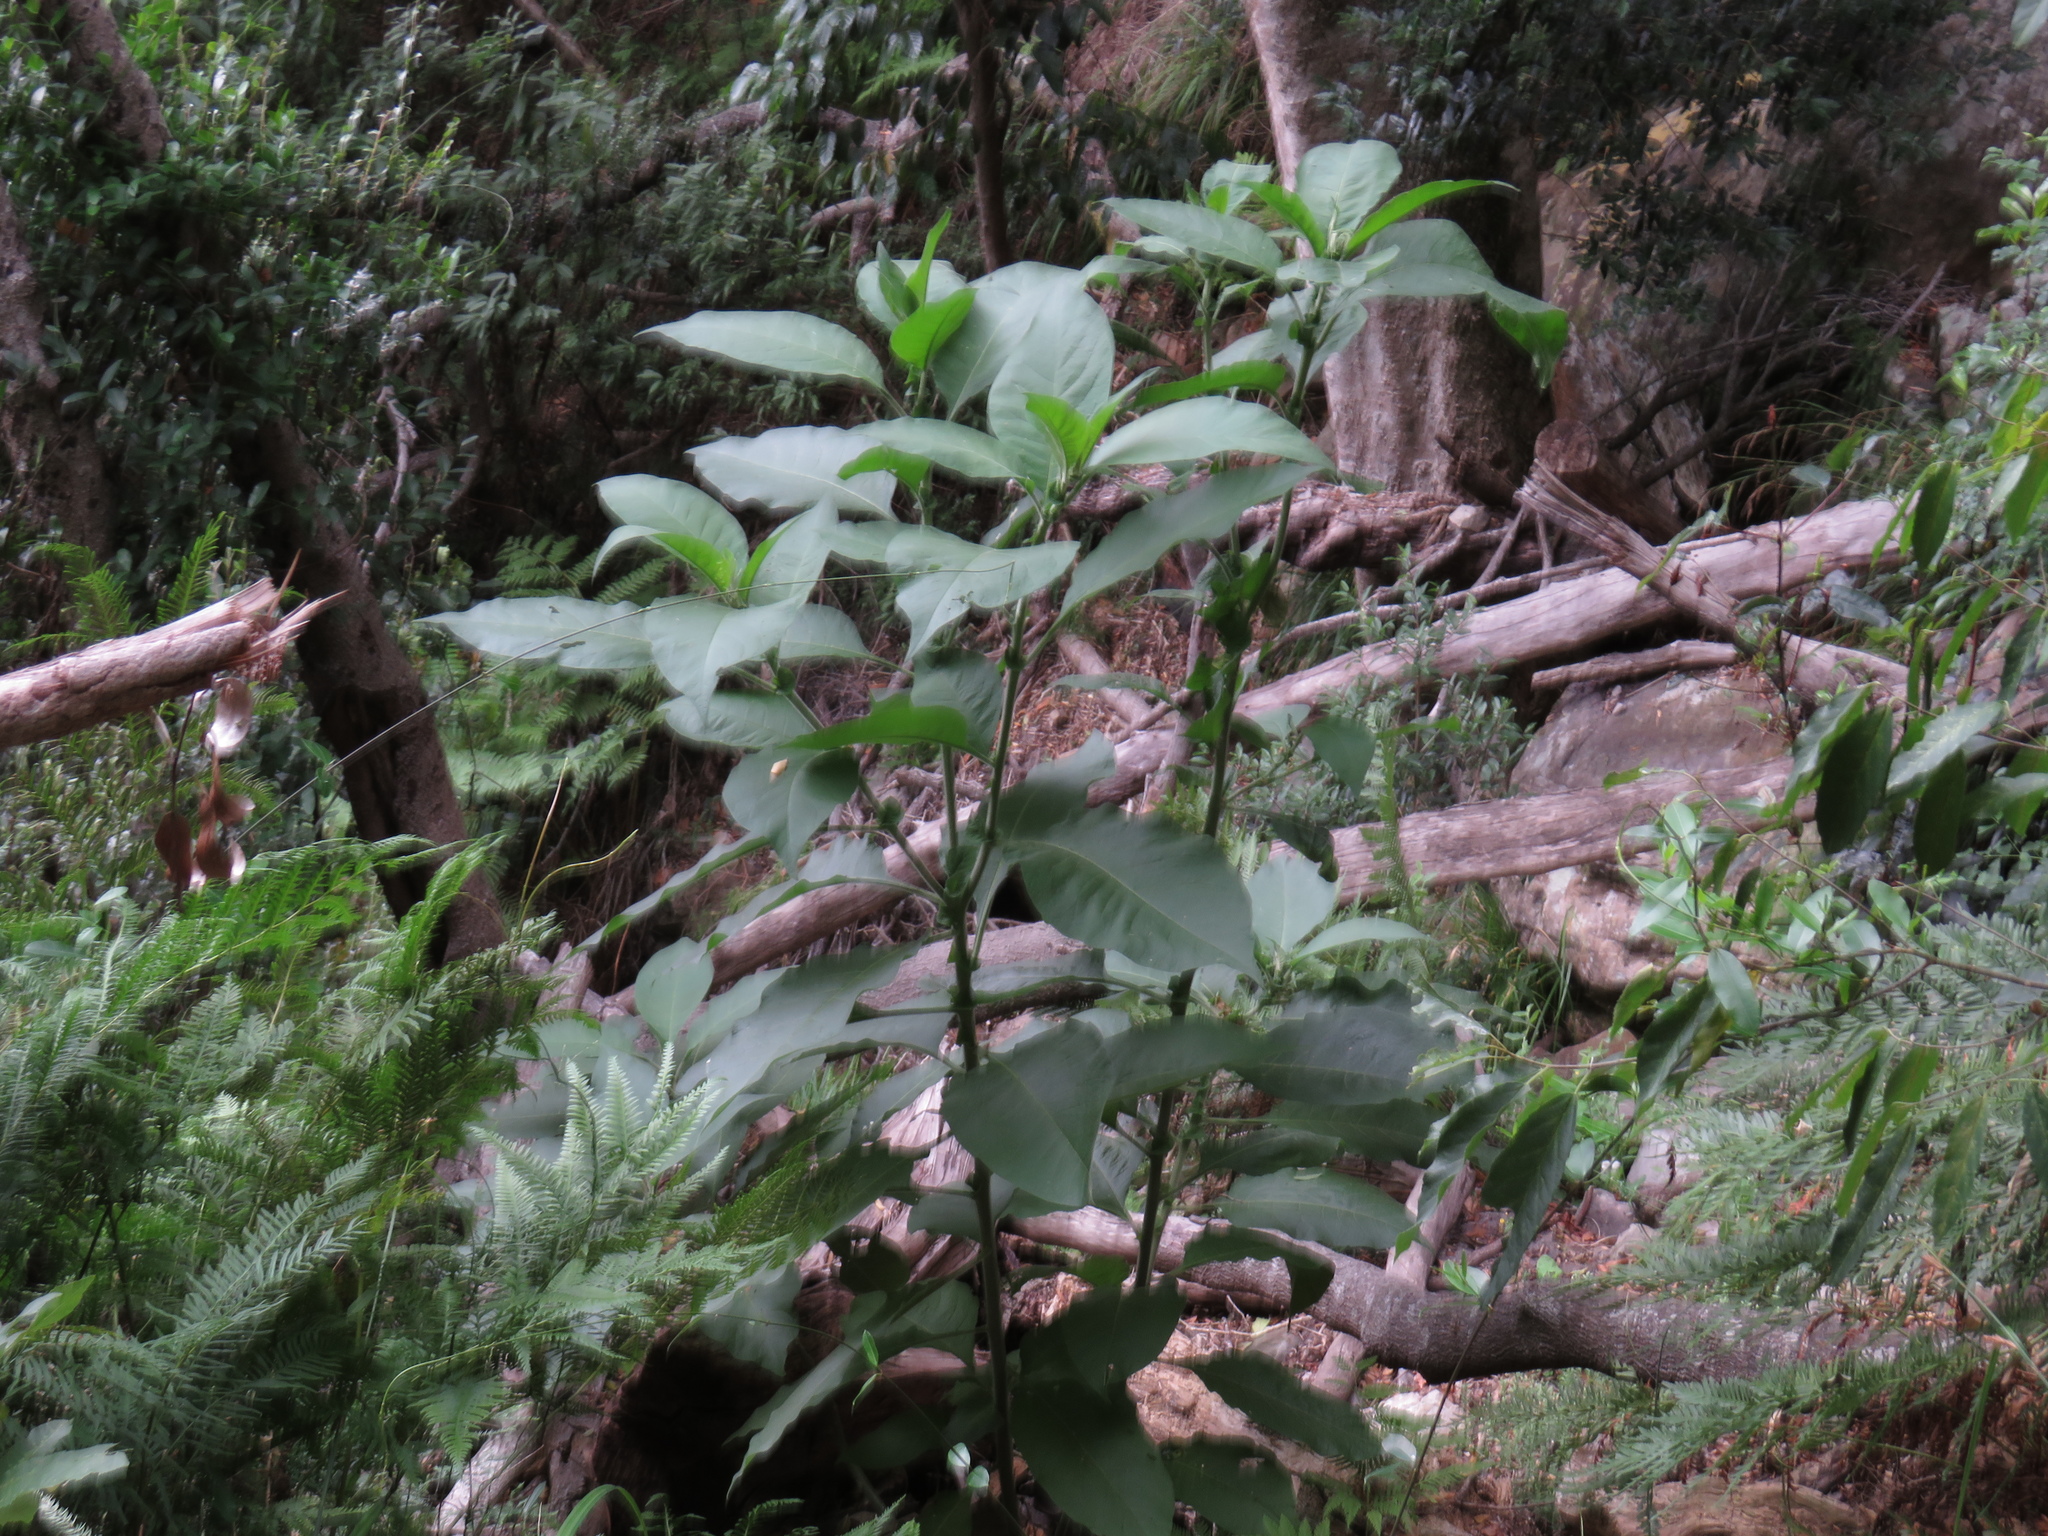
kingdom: Plantae
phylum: Tracheophyta
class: Magnoliopsida
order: Solanales
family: Solanaceae
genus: Solanum
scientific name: Solanum mauritianum
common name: Earleaf nightshade
